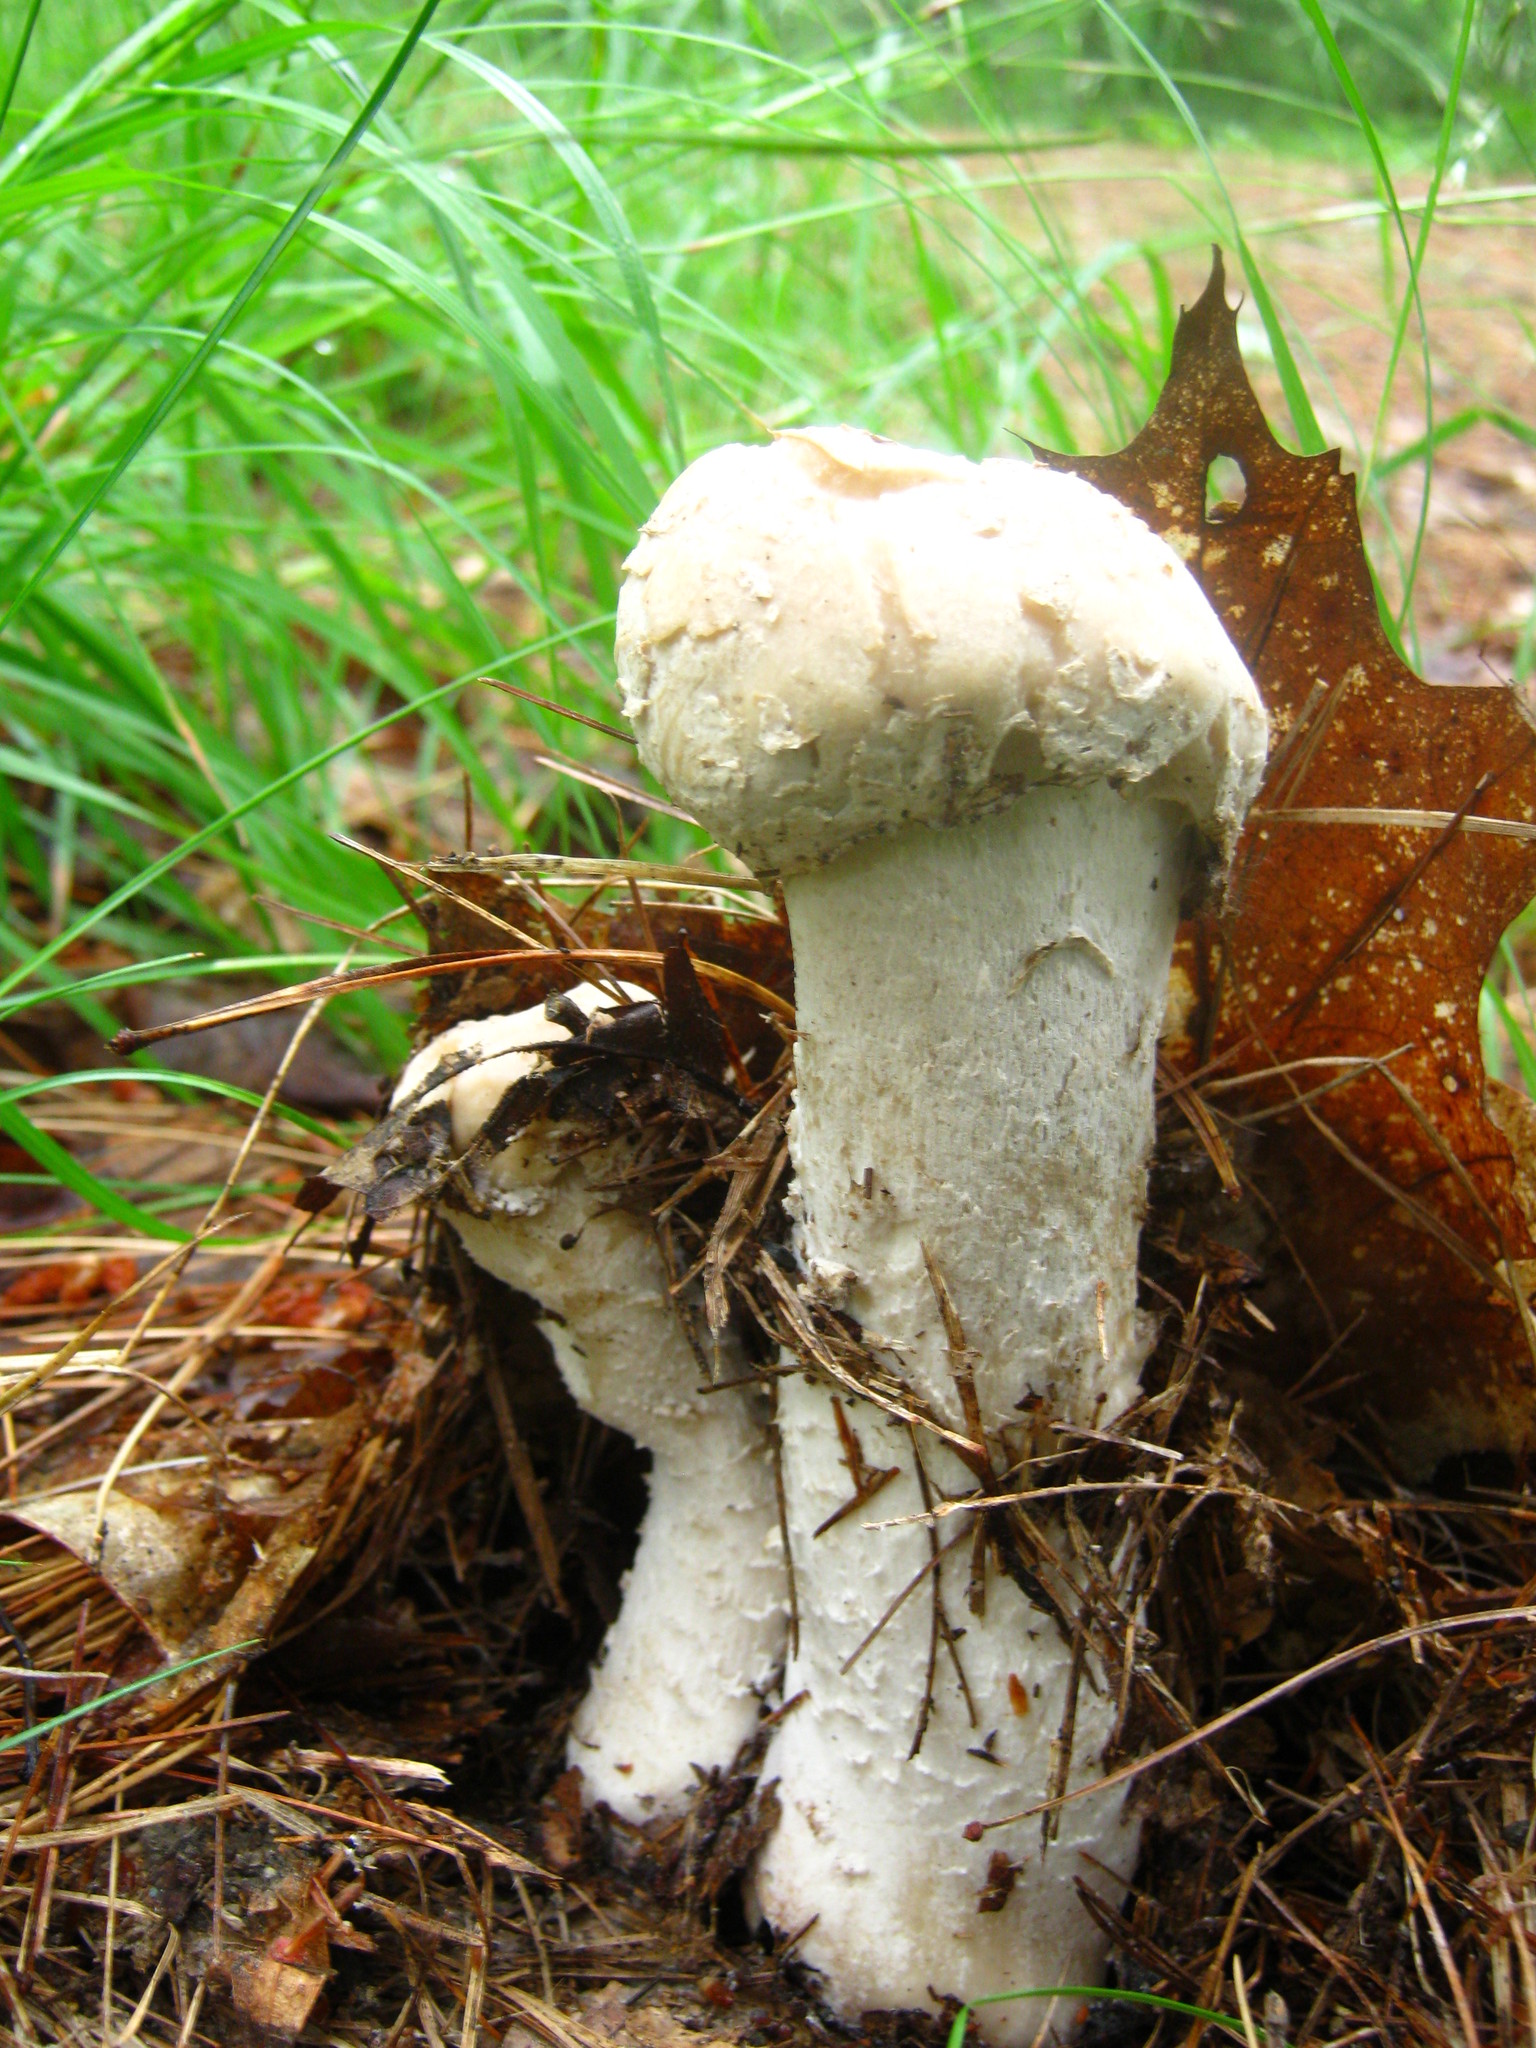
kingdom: Fungi
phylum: Ascomycota
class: Sordariomycetes
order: Hypocreales
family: Hypocreaceae
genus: Hypomyces
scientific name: Hypomyces hyalinus
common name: Amanita mold
